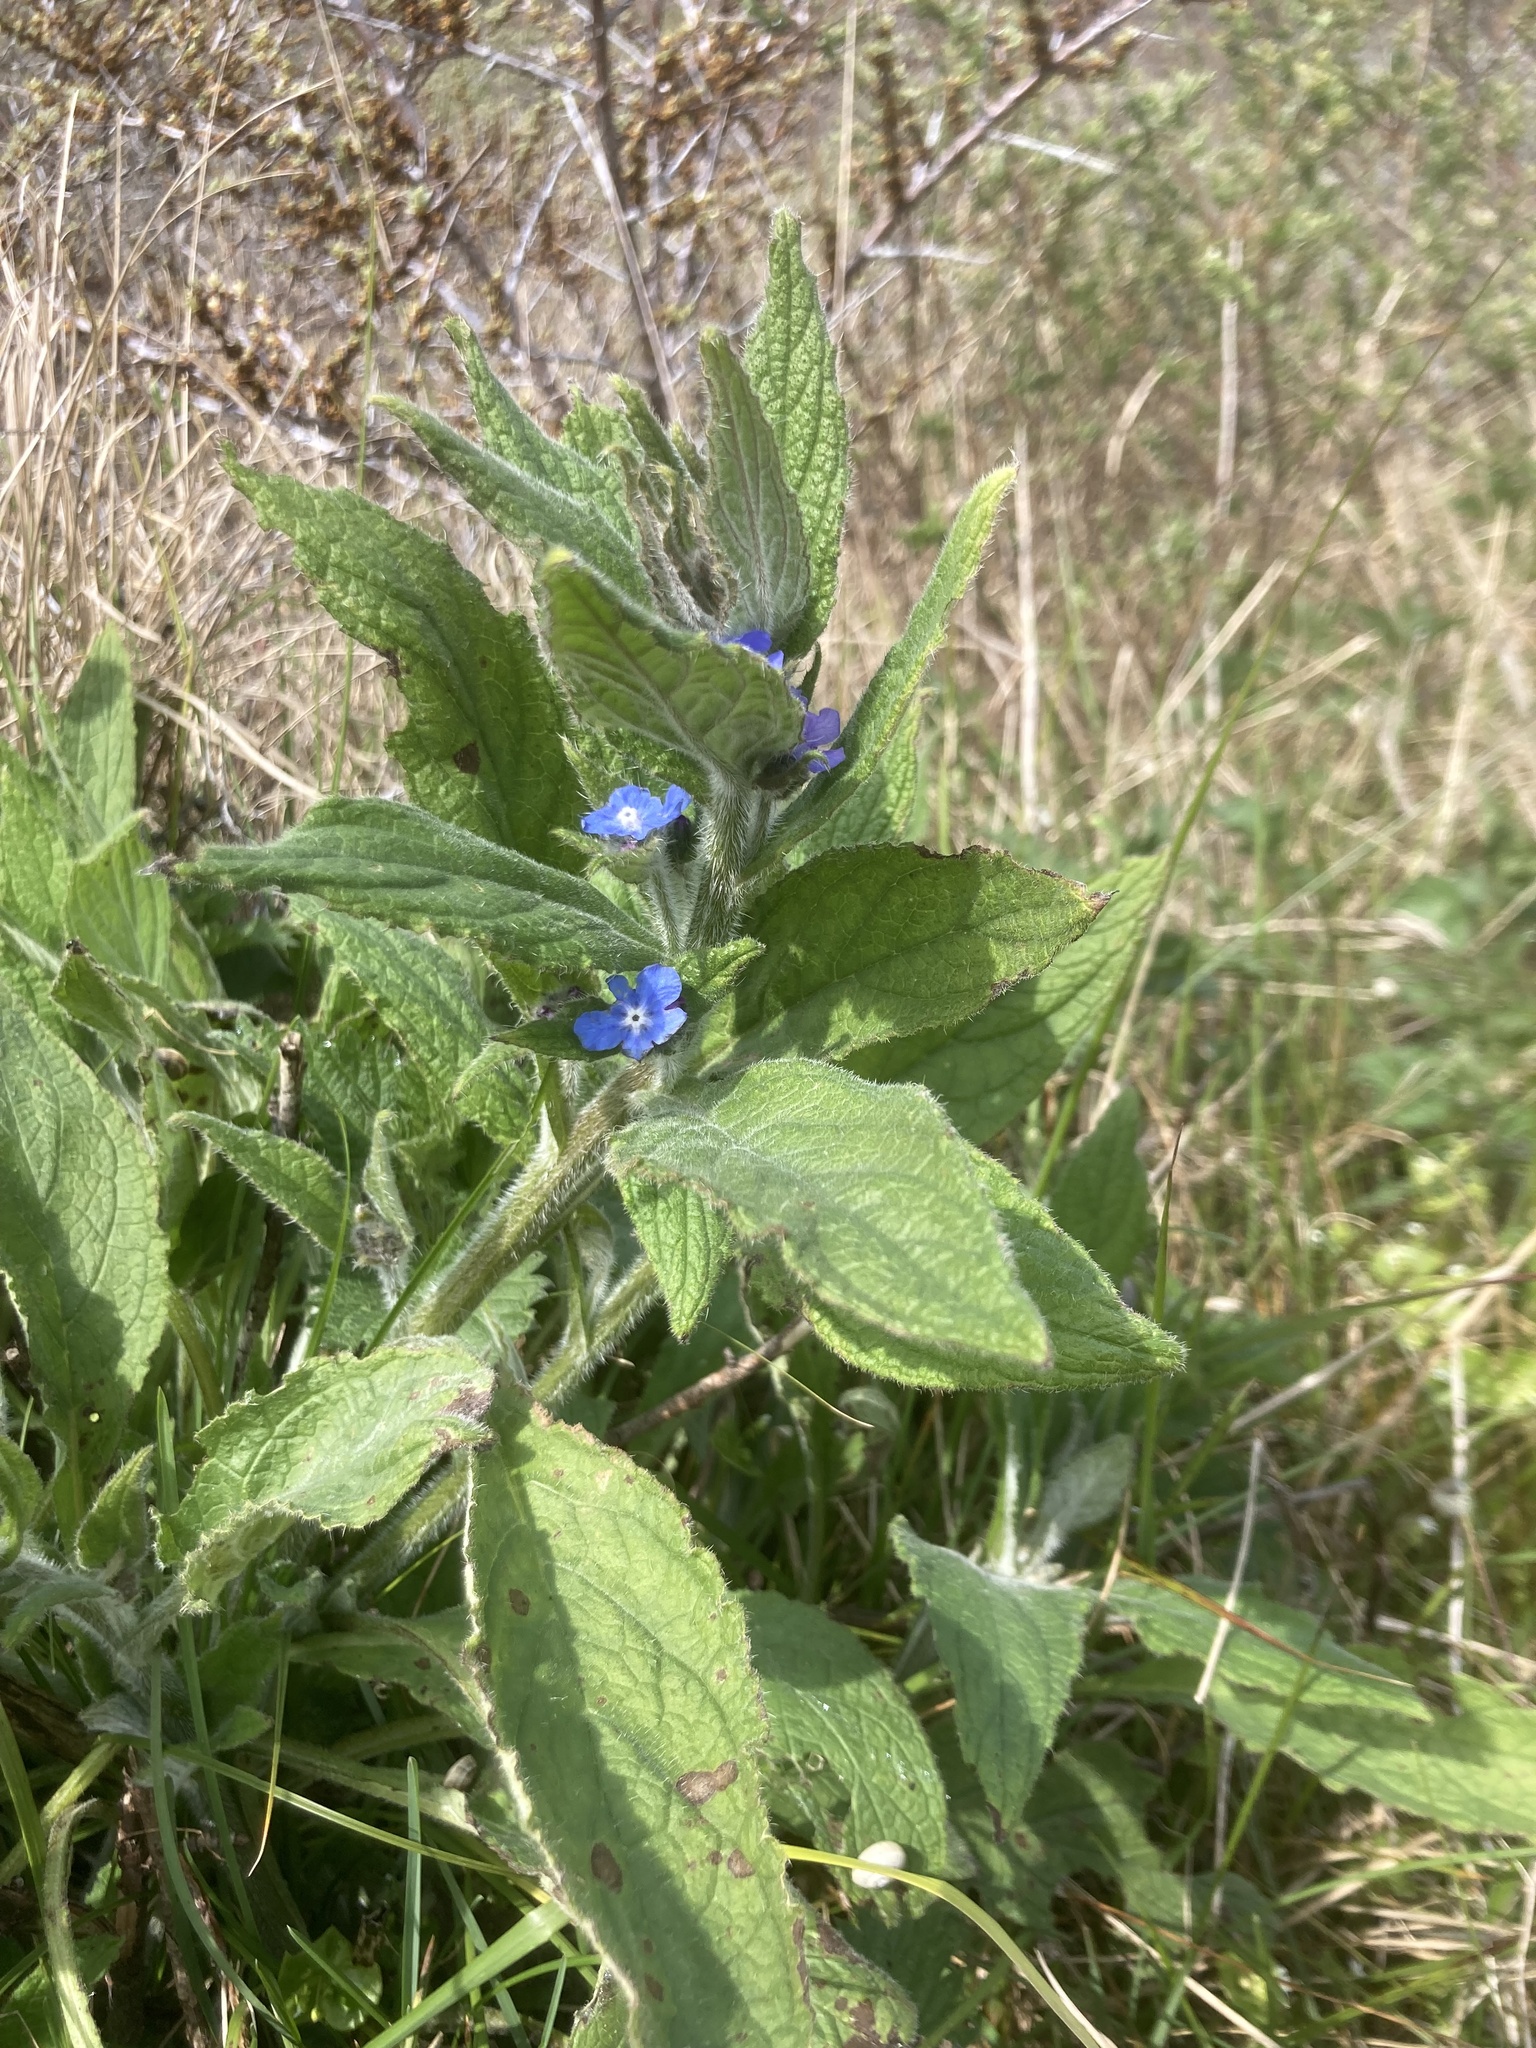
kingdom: Plantae
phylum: Tracheophyta
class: Magnoliopsida
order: Boraginales
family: Boraginaceae
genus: Pentaglottis
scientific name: Pentaglottis sempervirens
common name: Green alkanet
